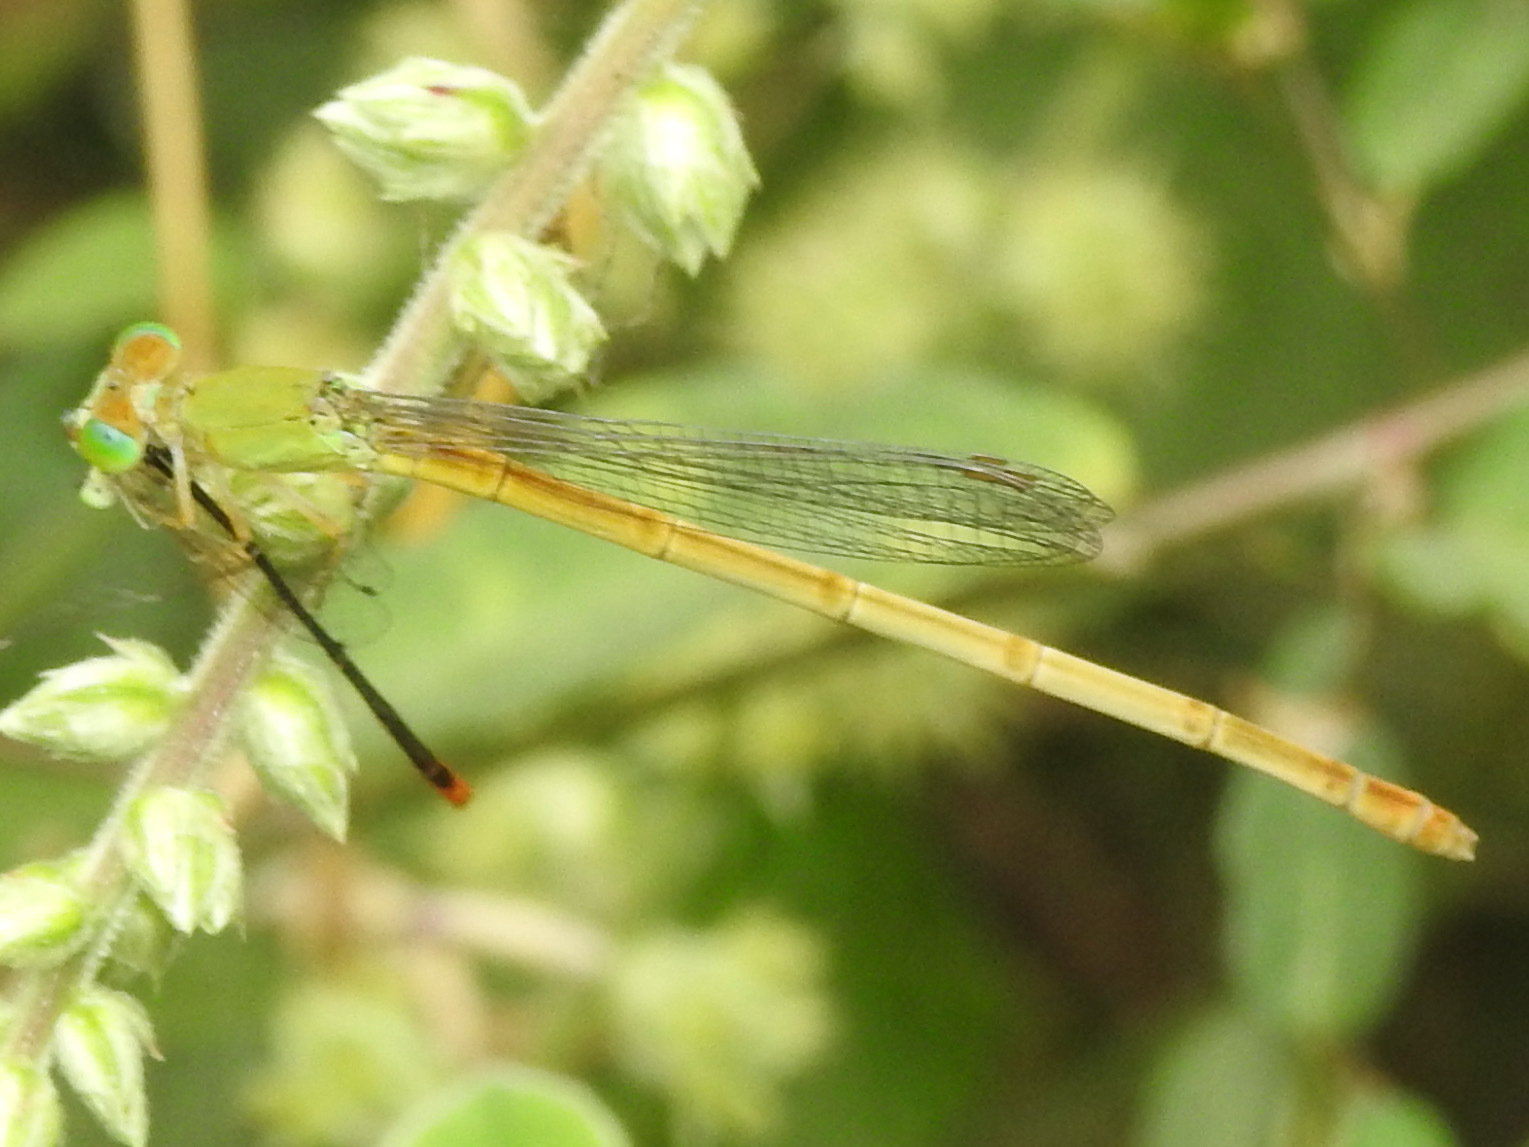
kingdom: Animalia
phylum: Arthropoda
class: Insecta
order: Odonata
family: Coenagrionidae
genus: Agriocnemis
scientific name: Agriocnemis pygmaea
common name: Pygmy wisp
